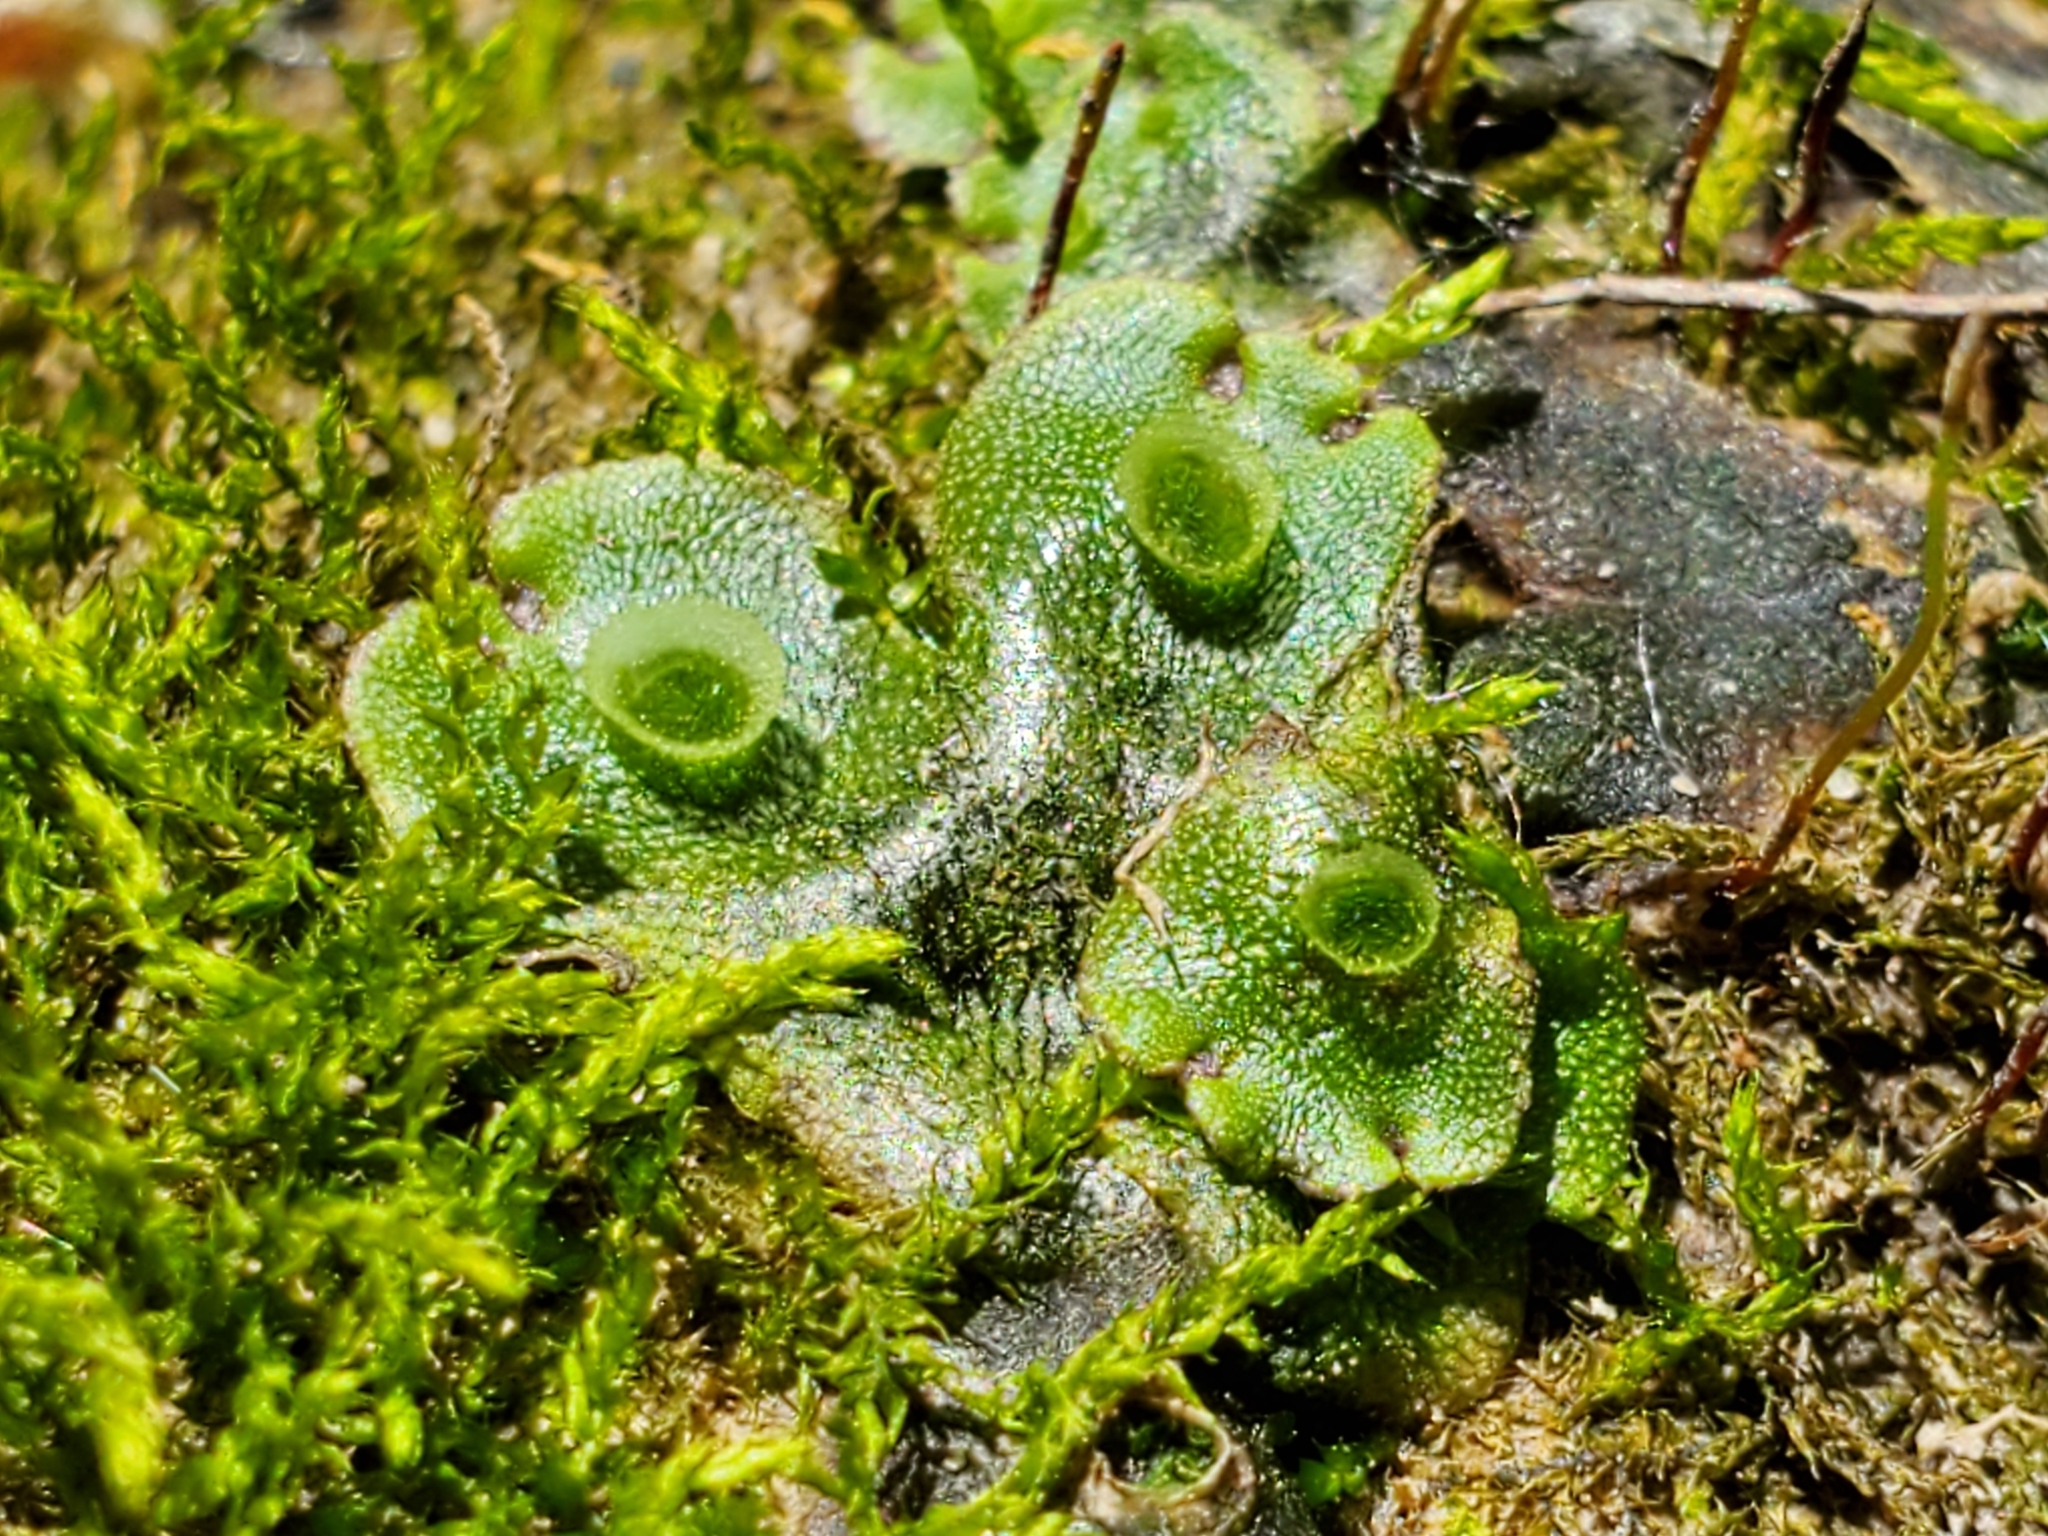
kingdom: Plantae
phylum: Marchantiophyta
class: Marchantiopsida
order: Marchantiales
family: Marchantiaceae
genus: Marchantia
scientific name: Marchantia polymorpha
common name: Common liverwort
